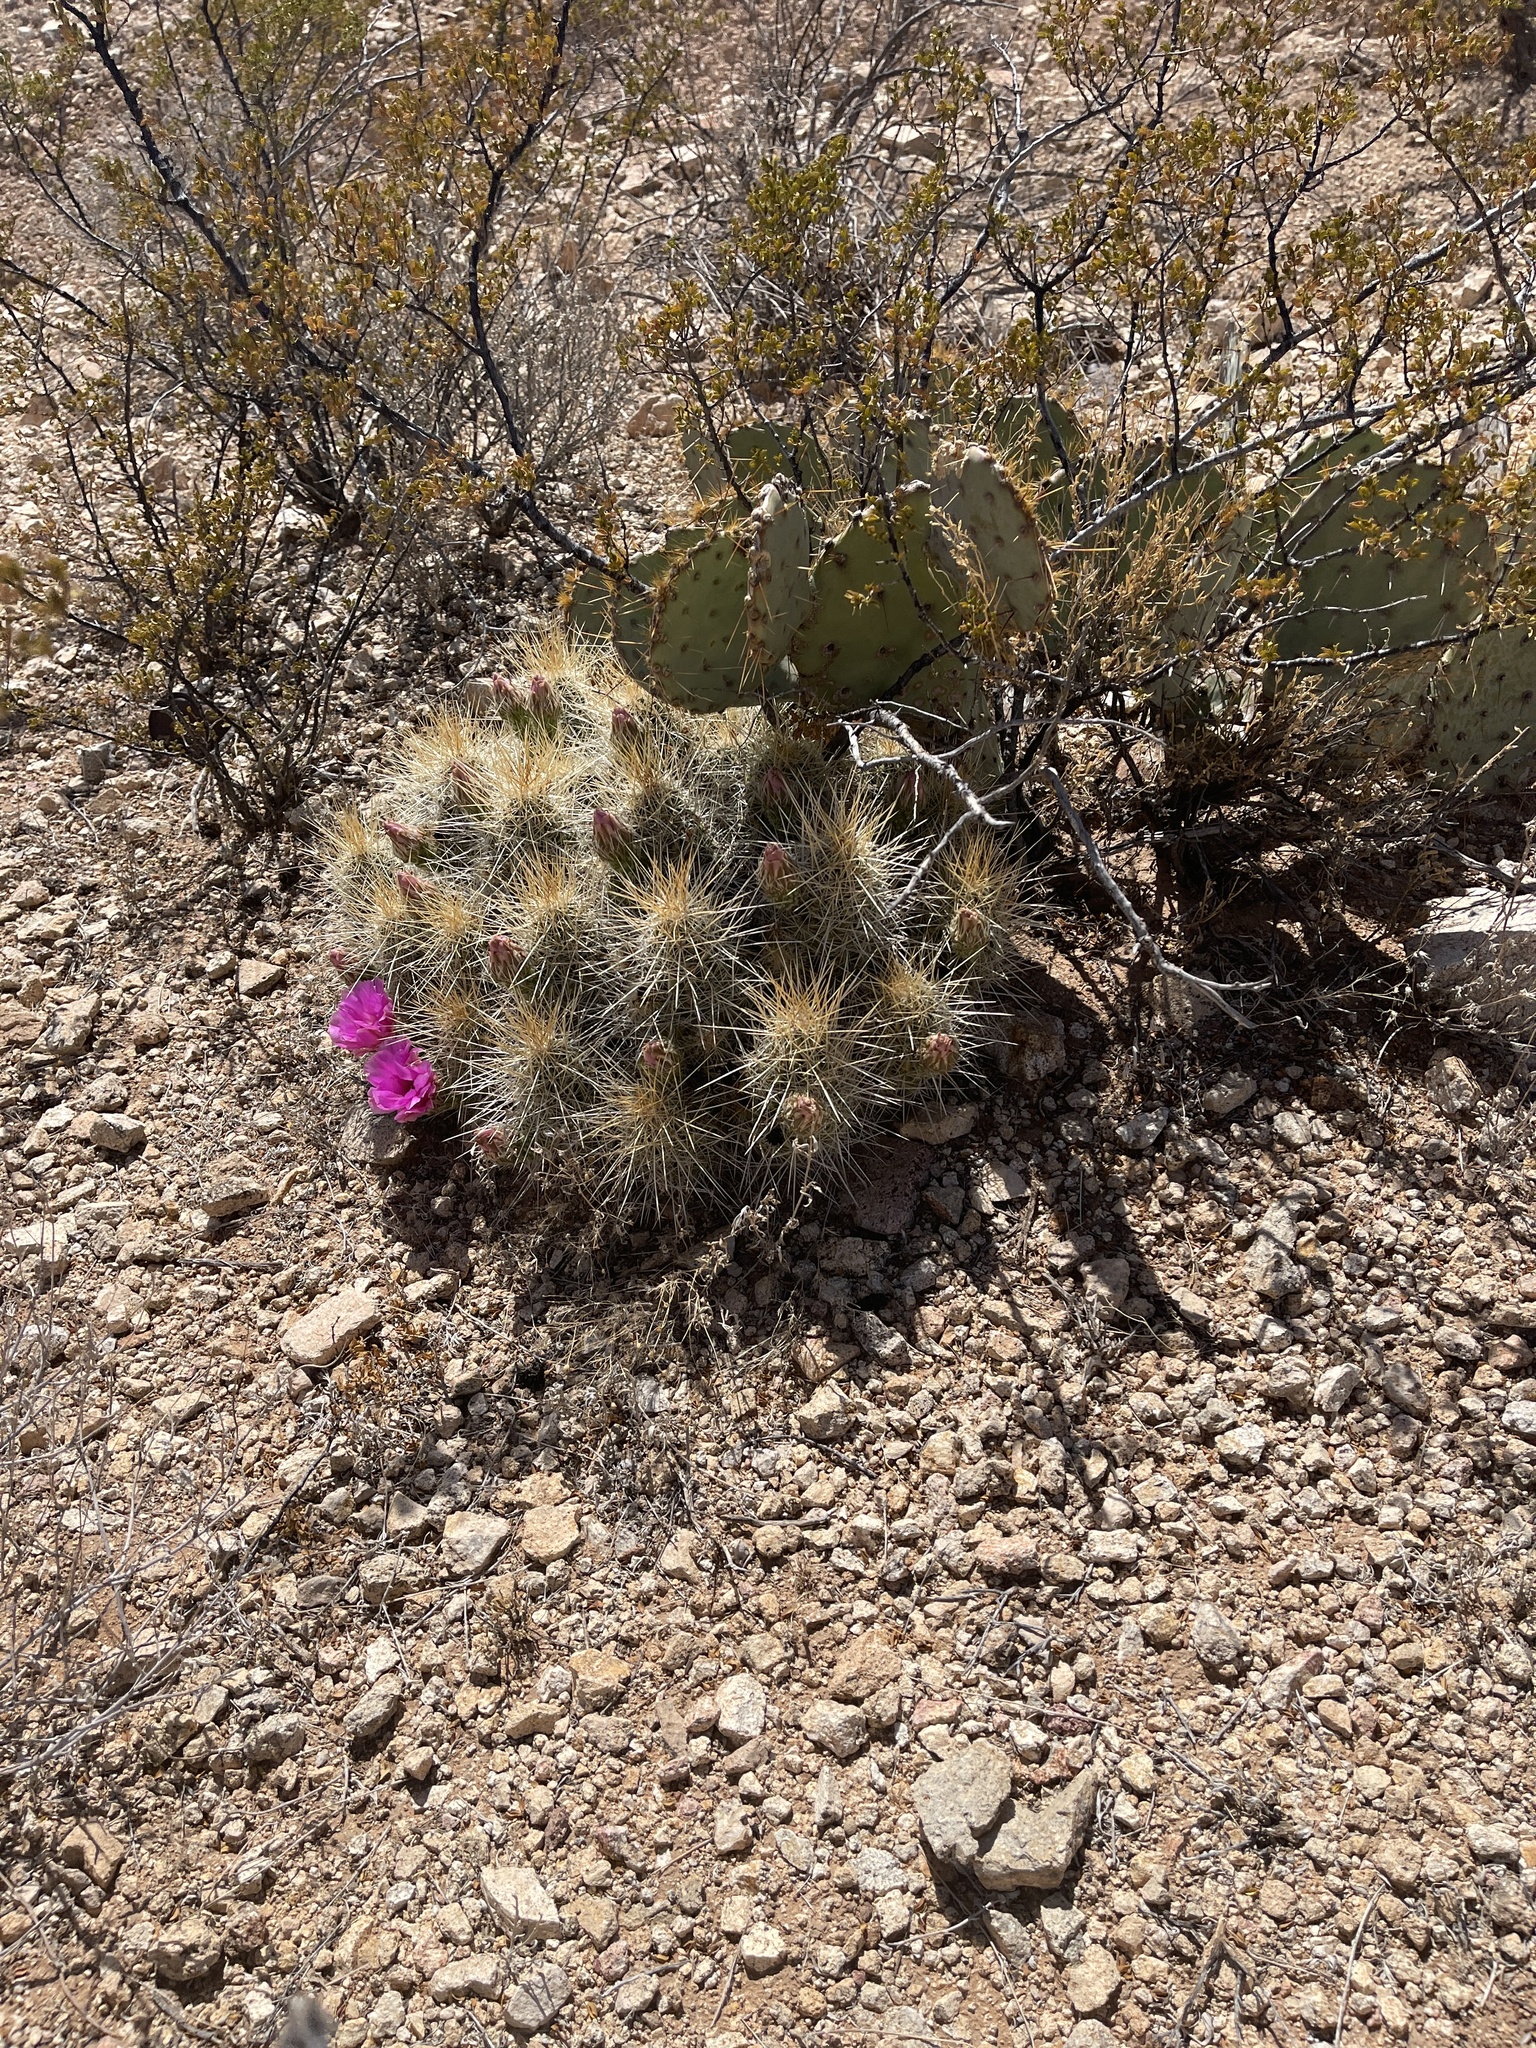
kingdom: Plantae
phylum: Tracheophyta
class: Magnoliopsida
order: Caryophyllales
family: Cactaceae
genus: Echinocereus
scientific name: Echinocereus stramineus
